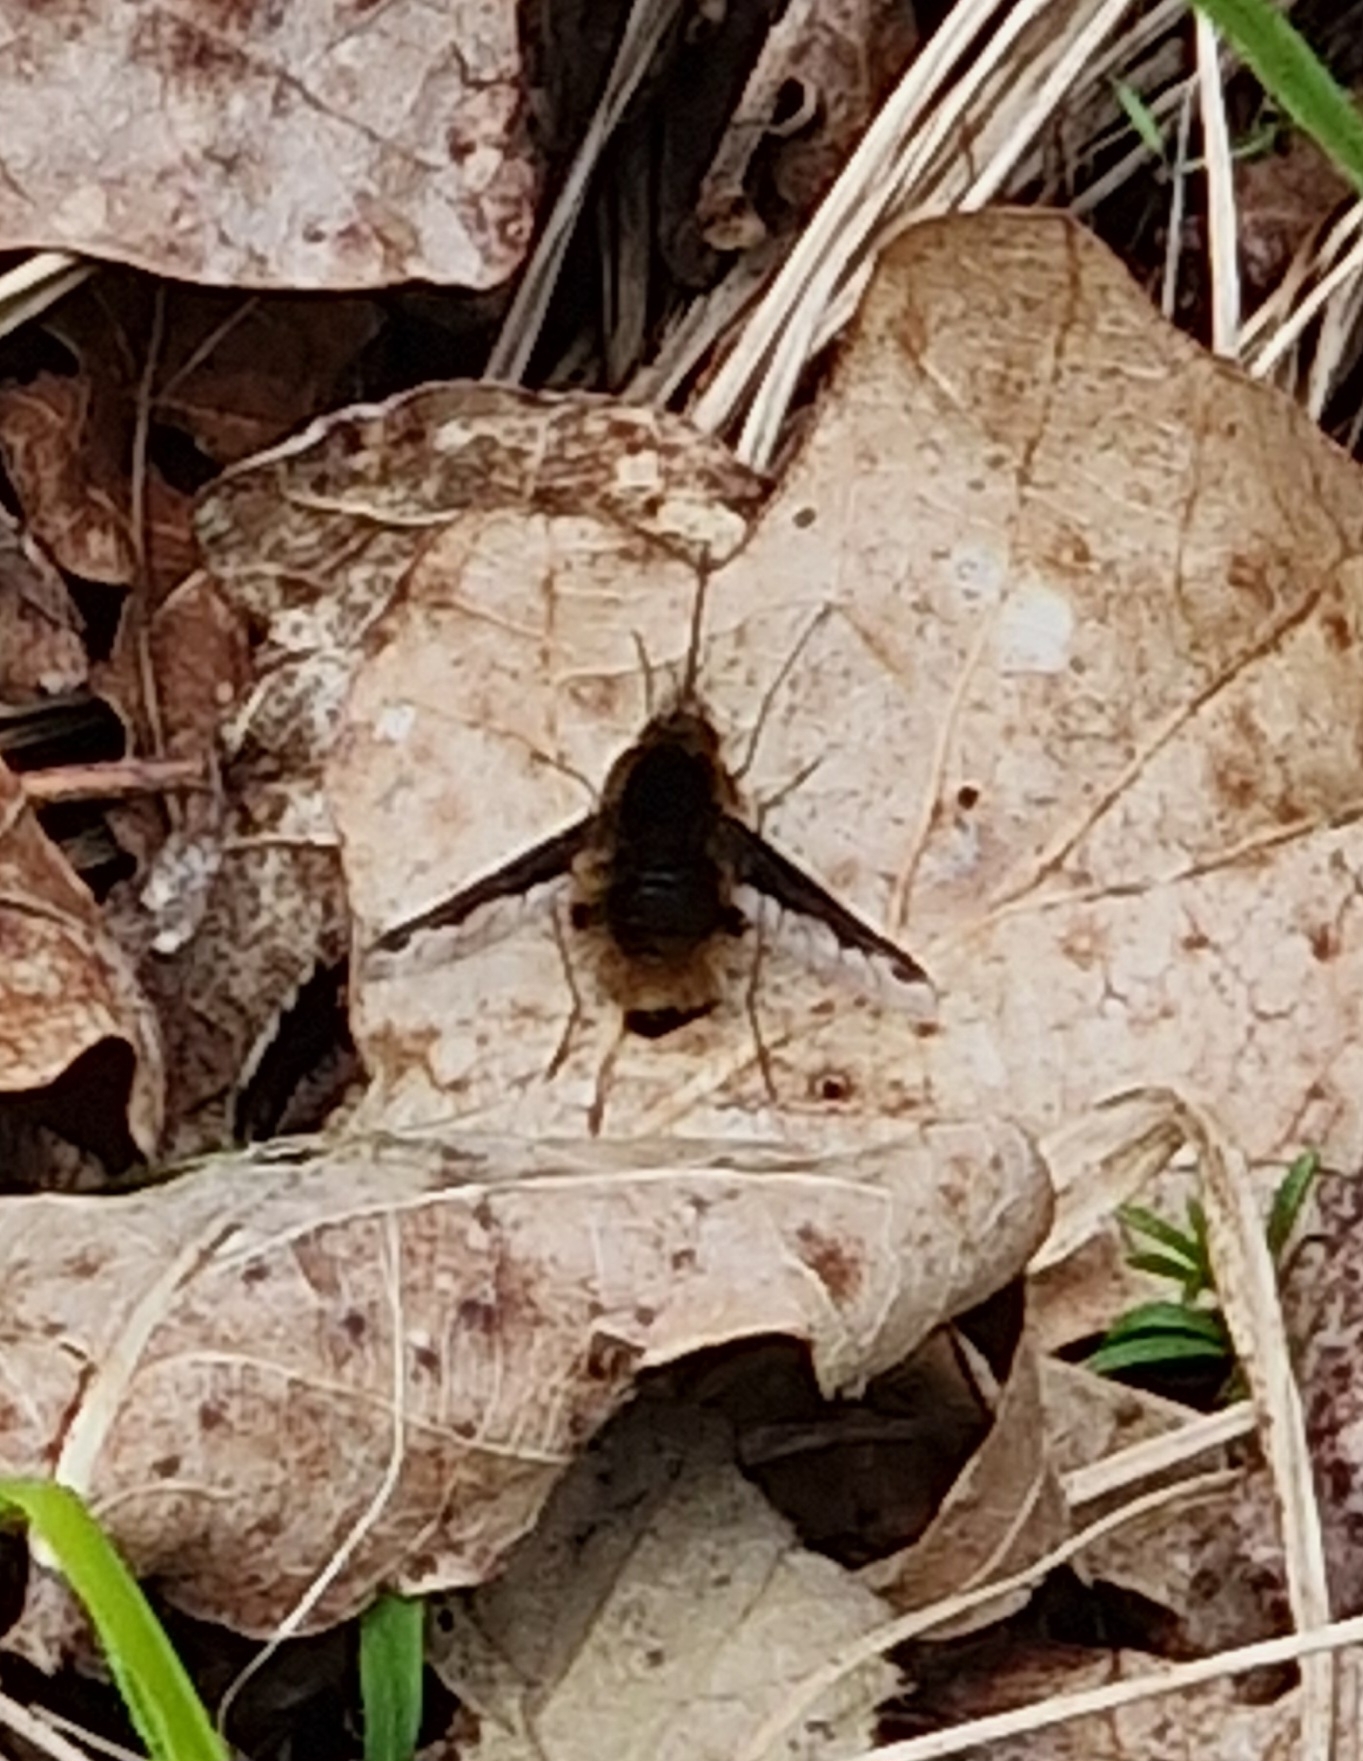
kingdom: Animalia
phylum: Arthropoda
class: Insecta
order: Diptera
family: Bombyliidae
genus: Bombylius
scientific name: Bombylius major
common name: Bee fly
